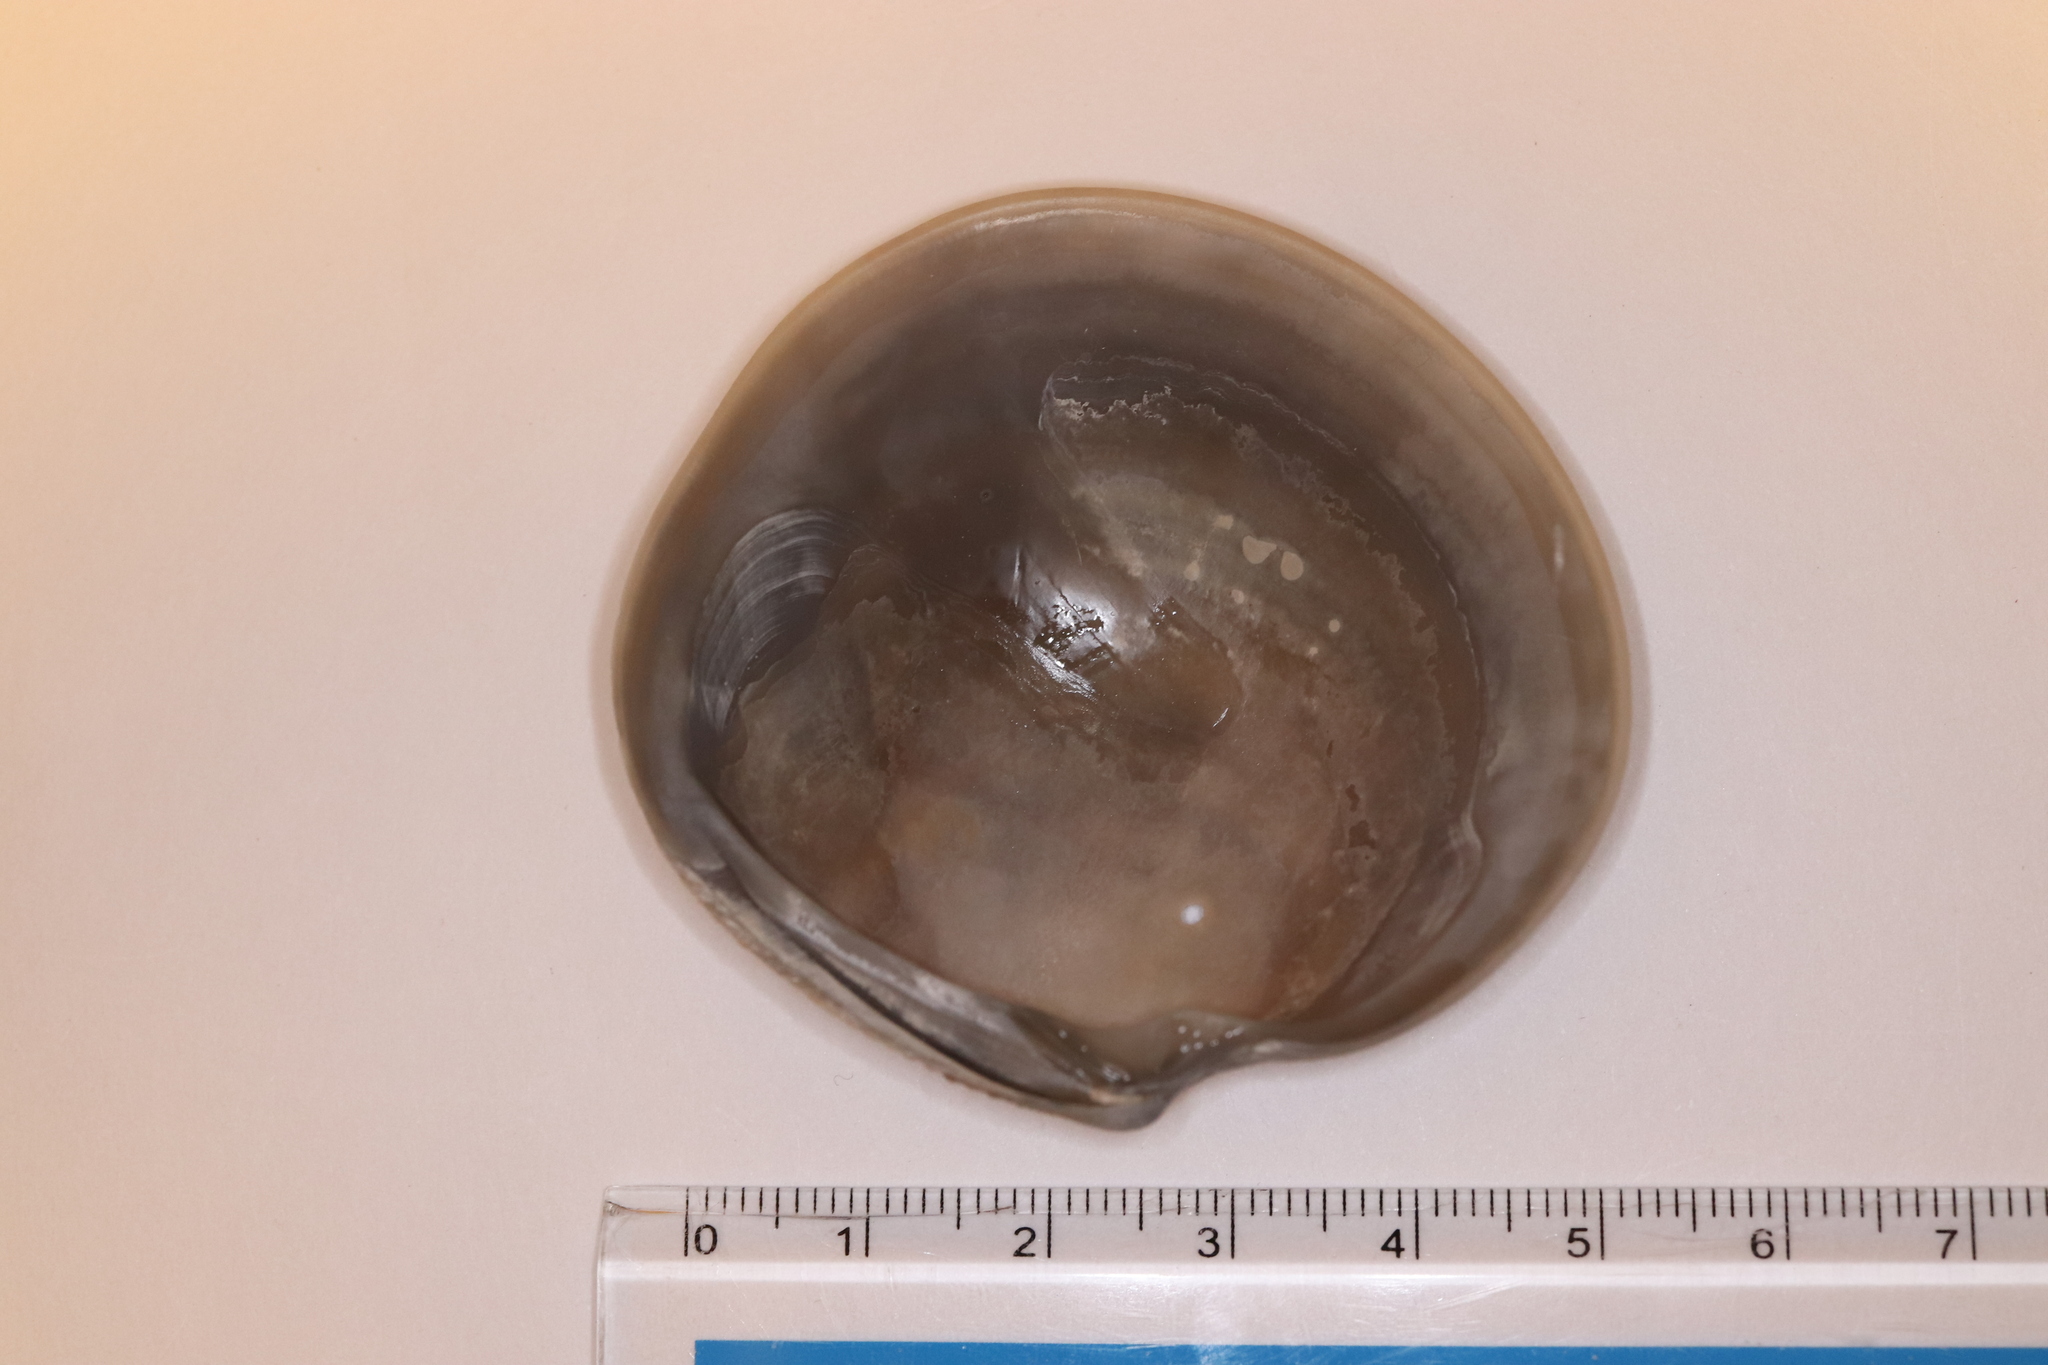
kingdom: Animalia
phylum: Mollusca
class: Bivalvia
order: Venerida
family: Veneridae
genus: Dosinia
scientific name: Dosinia japonica
